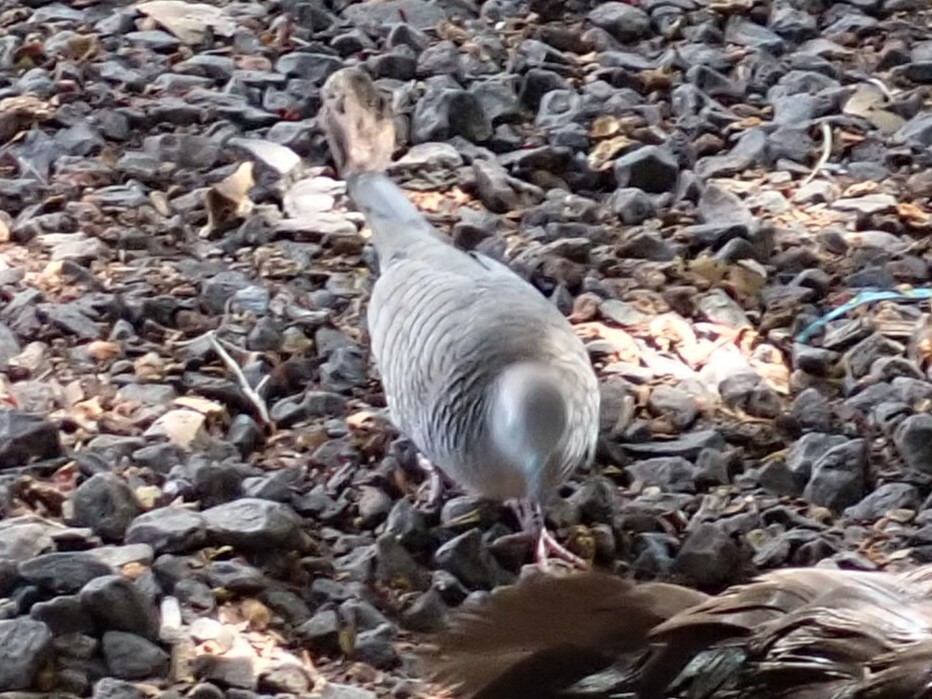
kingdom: Animalia
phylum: Chordata
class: Aves
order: Columbiformes
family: Columbidae
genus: Geopelia
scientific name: Geopelia striata
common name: Zebra dove
